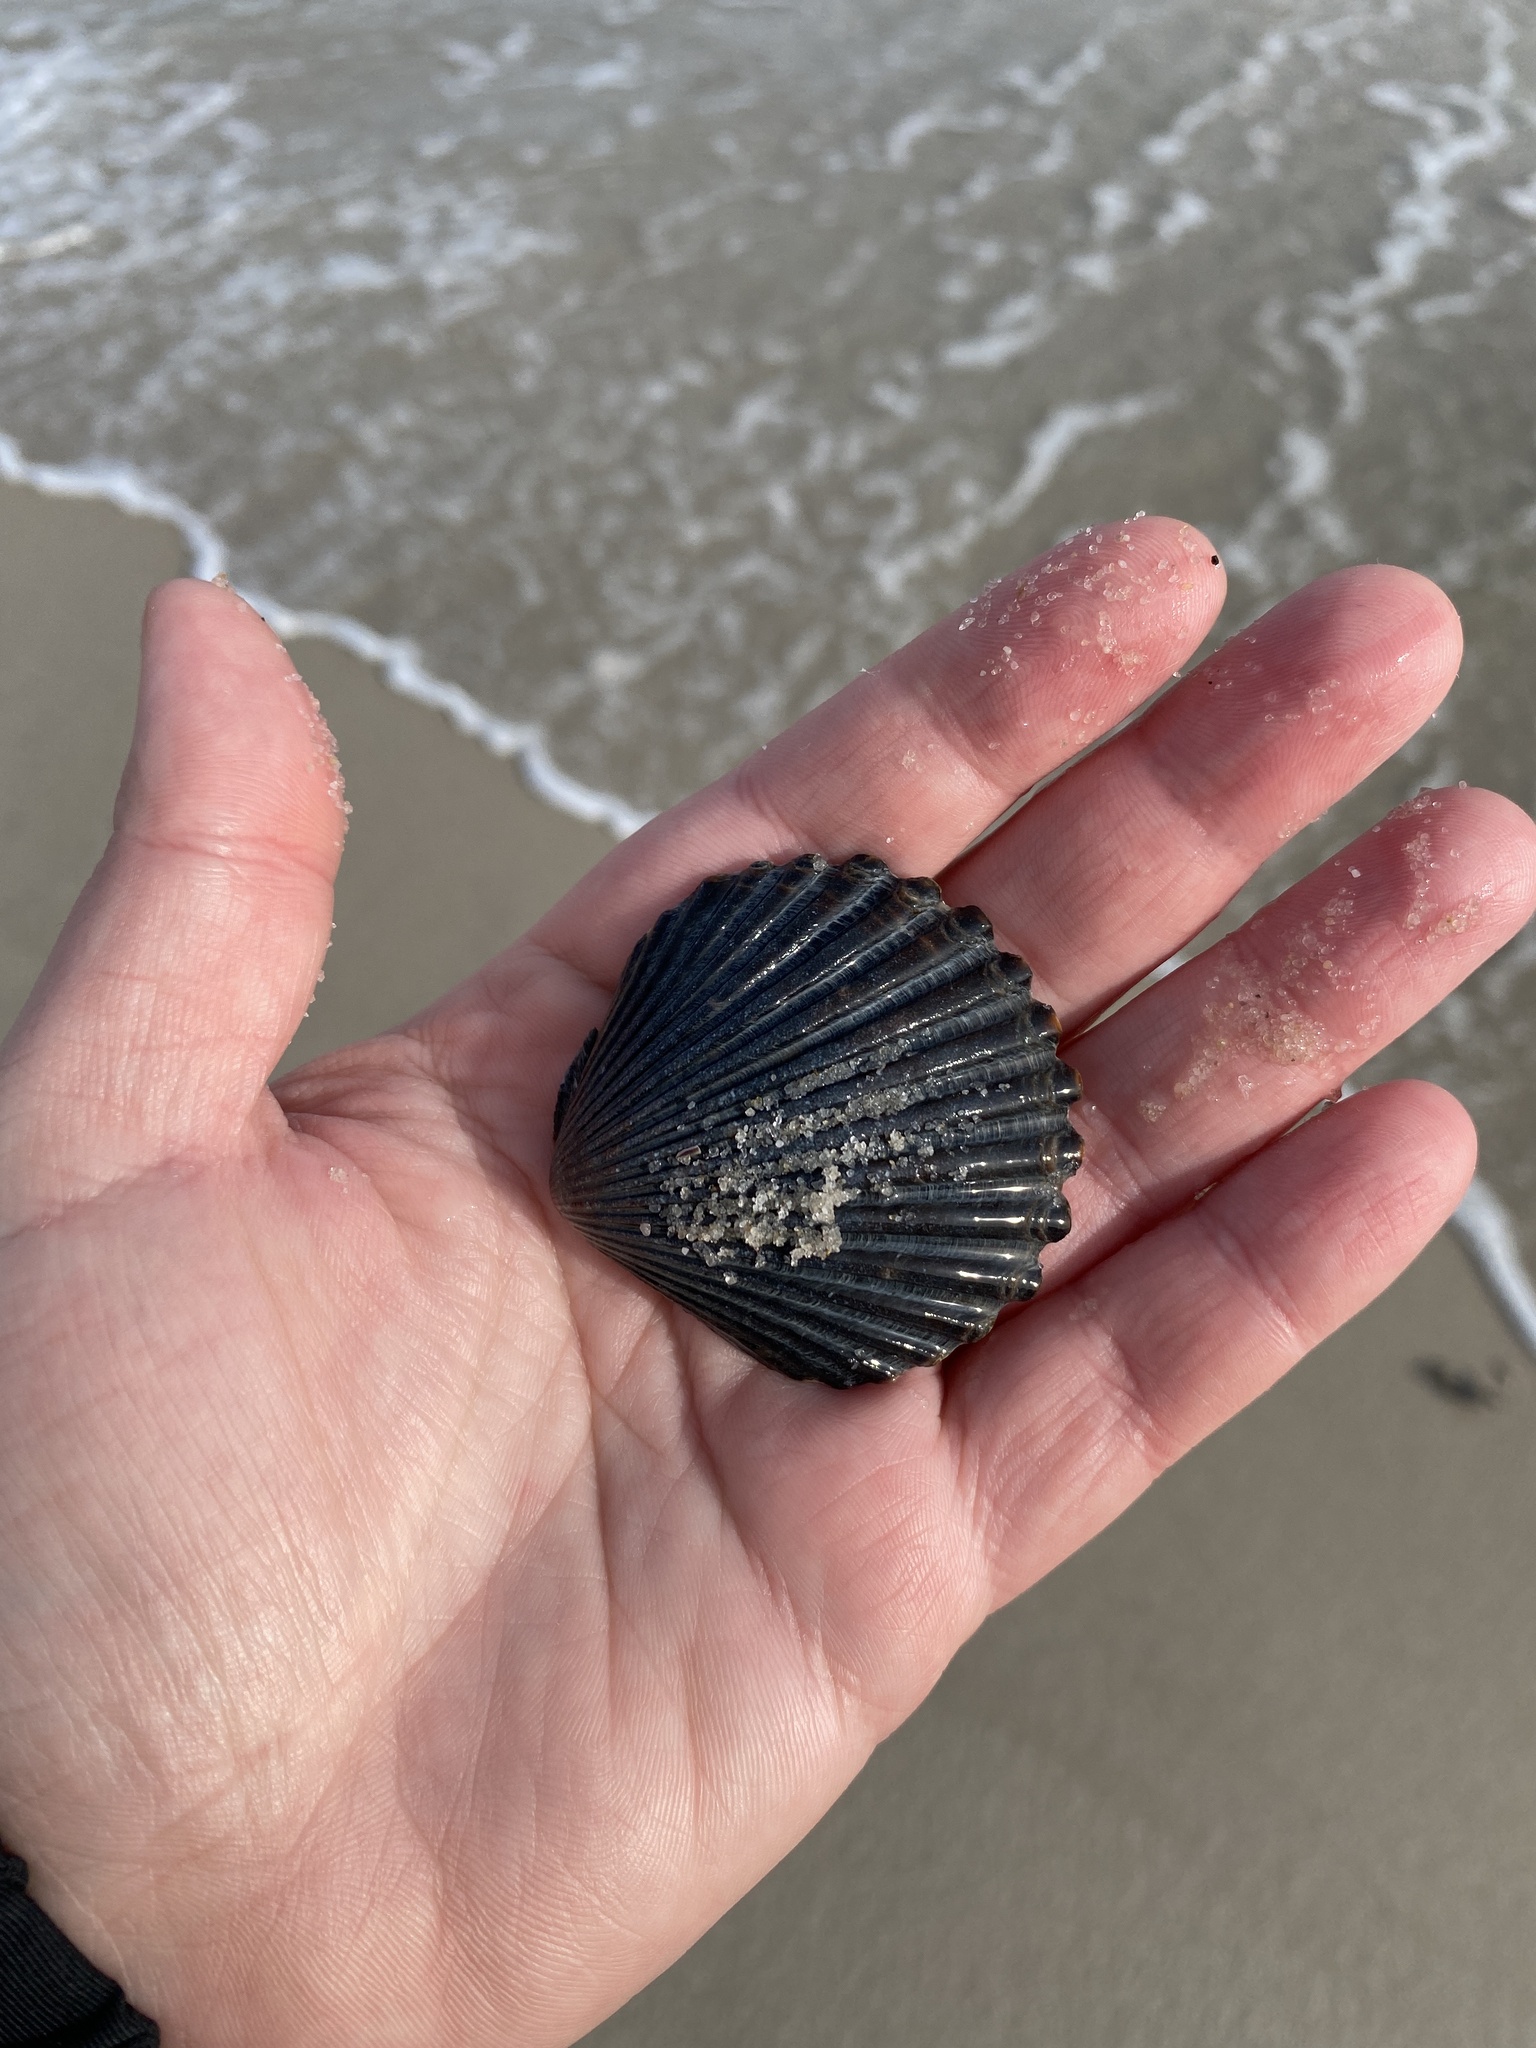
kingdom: Animalia
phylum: Mollusca
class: Bivalvia
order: Pectinida
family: Pectinidae
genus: Argopecten
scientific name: Argopecten irradians
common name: Atlantic bay scallop
